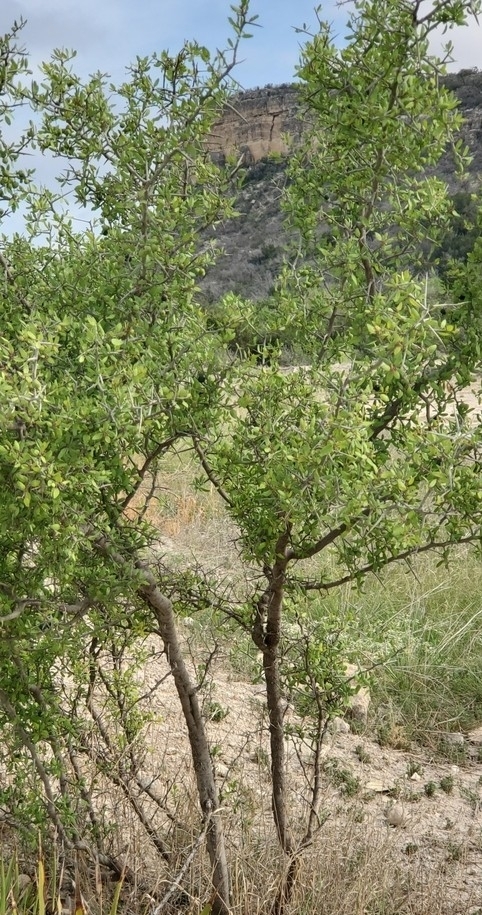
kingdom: Plantae
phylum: Tracheophyta
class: Magnoliopsida
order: Rosales
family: Rhamnaceae
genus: Sarcomphalus
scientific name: Sarcomphalus obtusifolius
